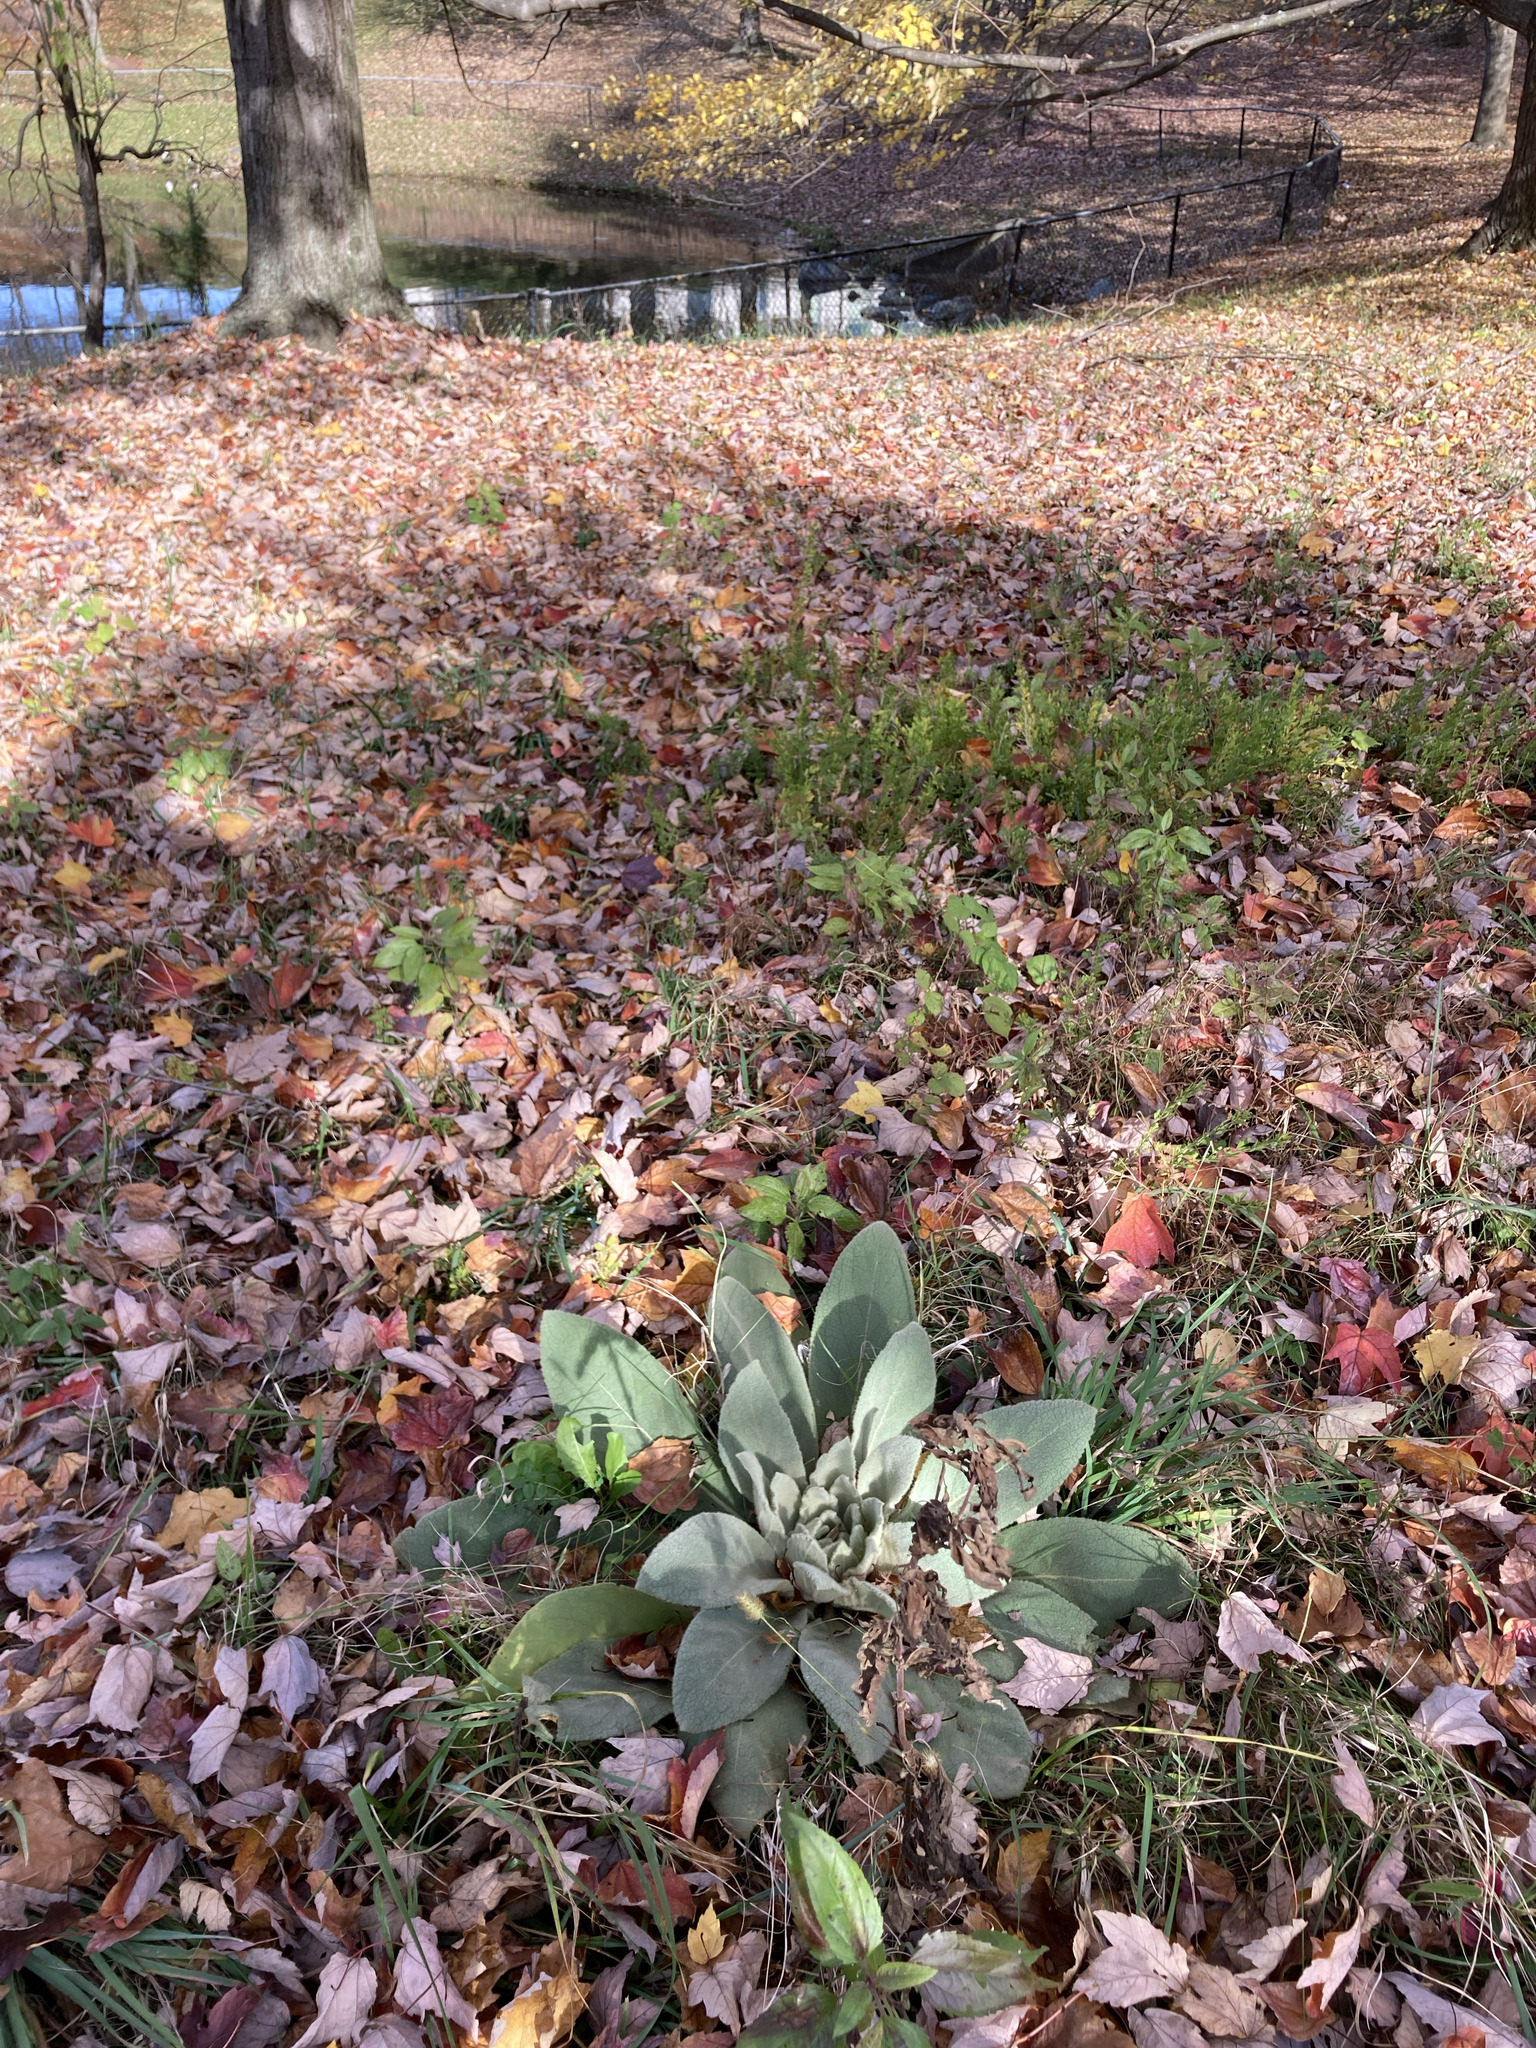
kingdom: Plantae
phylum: Tracheophyta
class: Magnoliopsida
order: Lamiales
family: Scrophulariaceae
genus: Verbascum
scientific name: Verbascum thapsus
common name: Common mullein
